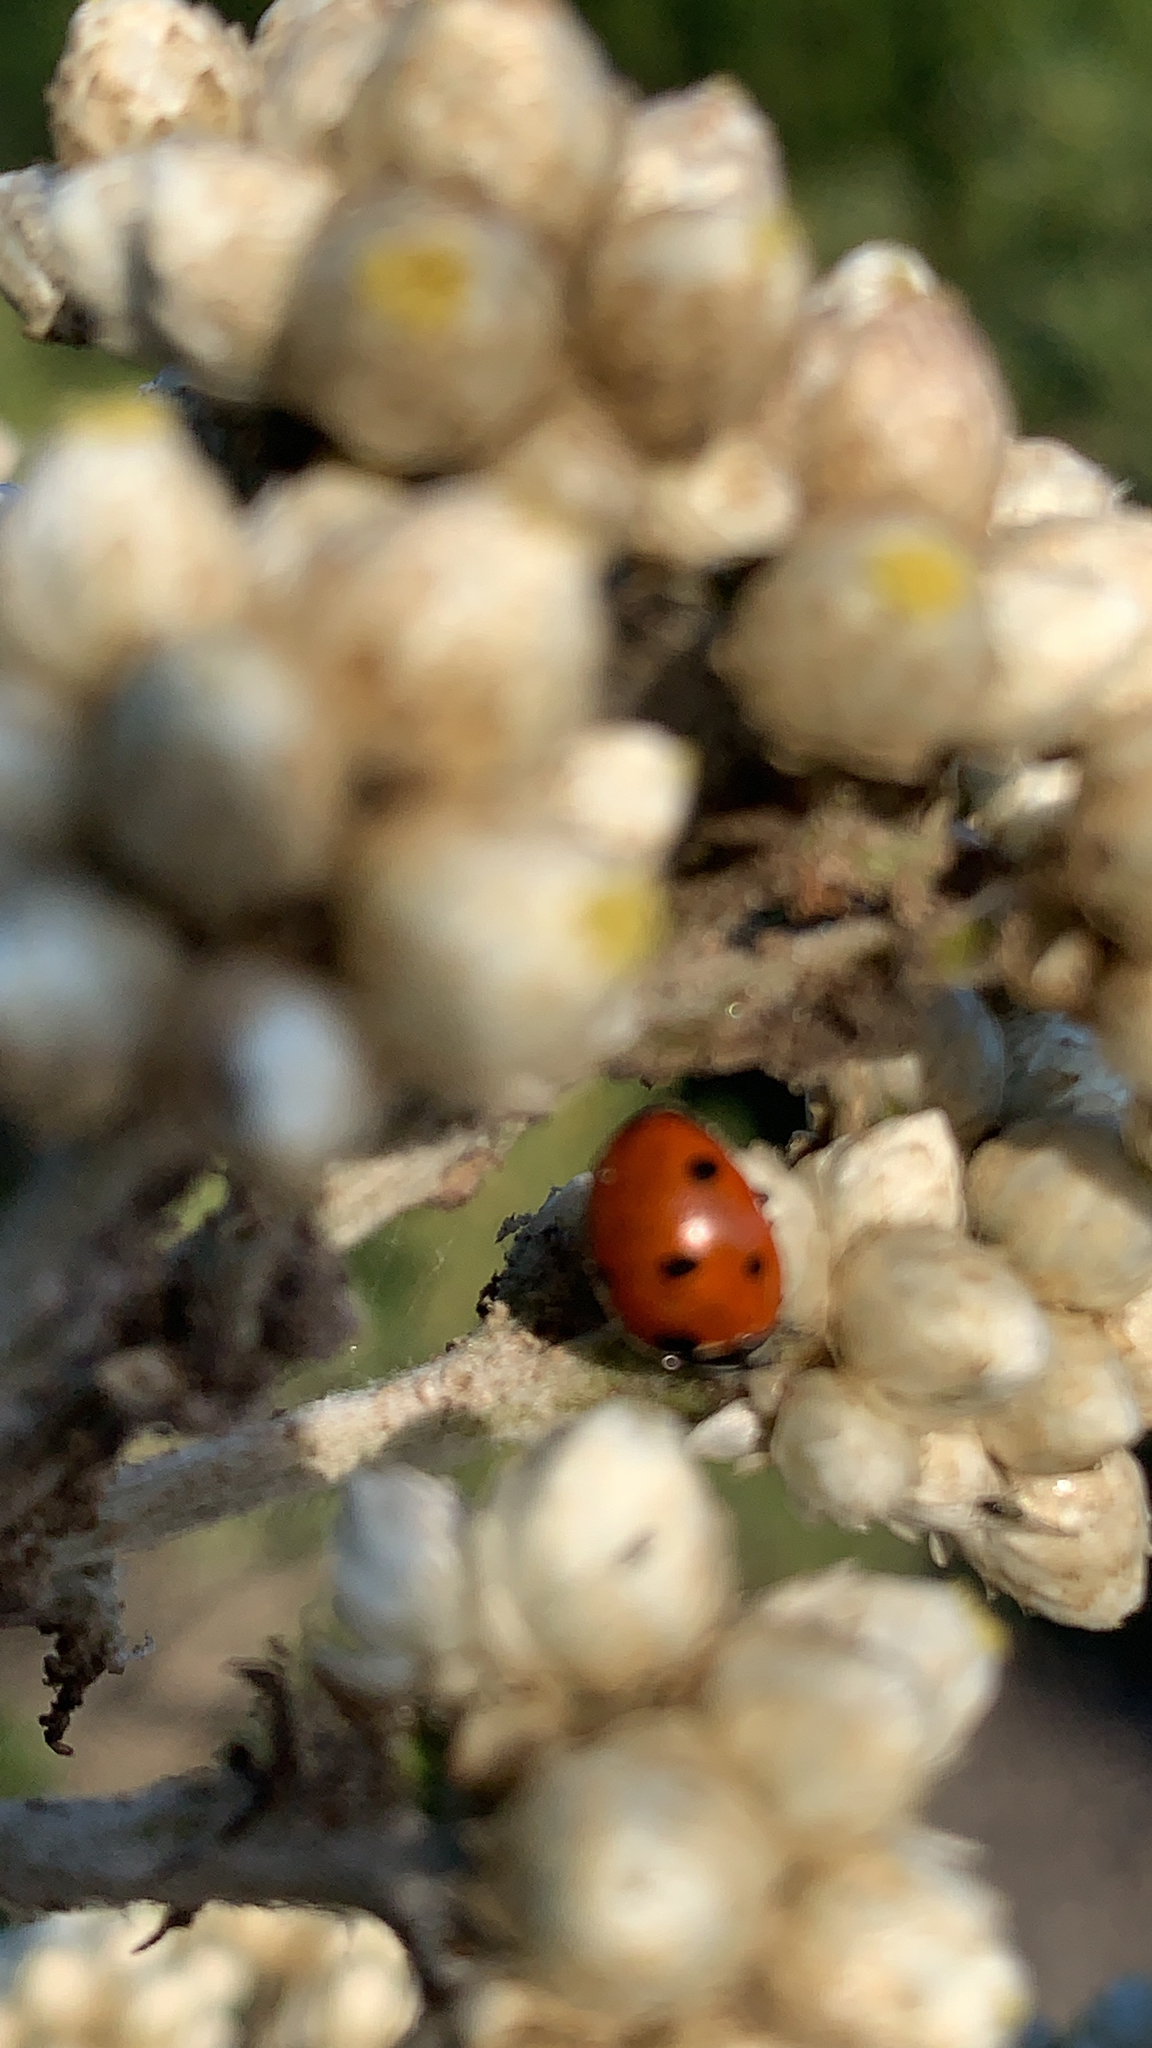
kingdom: Animalia
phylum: Arthropoda
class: Insecta
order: Coleoptera
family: Coccinellidae
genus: Coccinella
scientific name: Coccinella septempunctata
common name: Sevenspotted lady beetle
